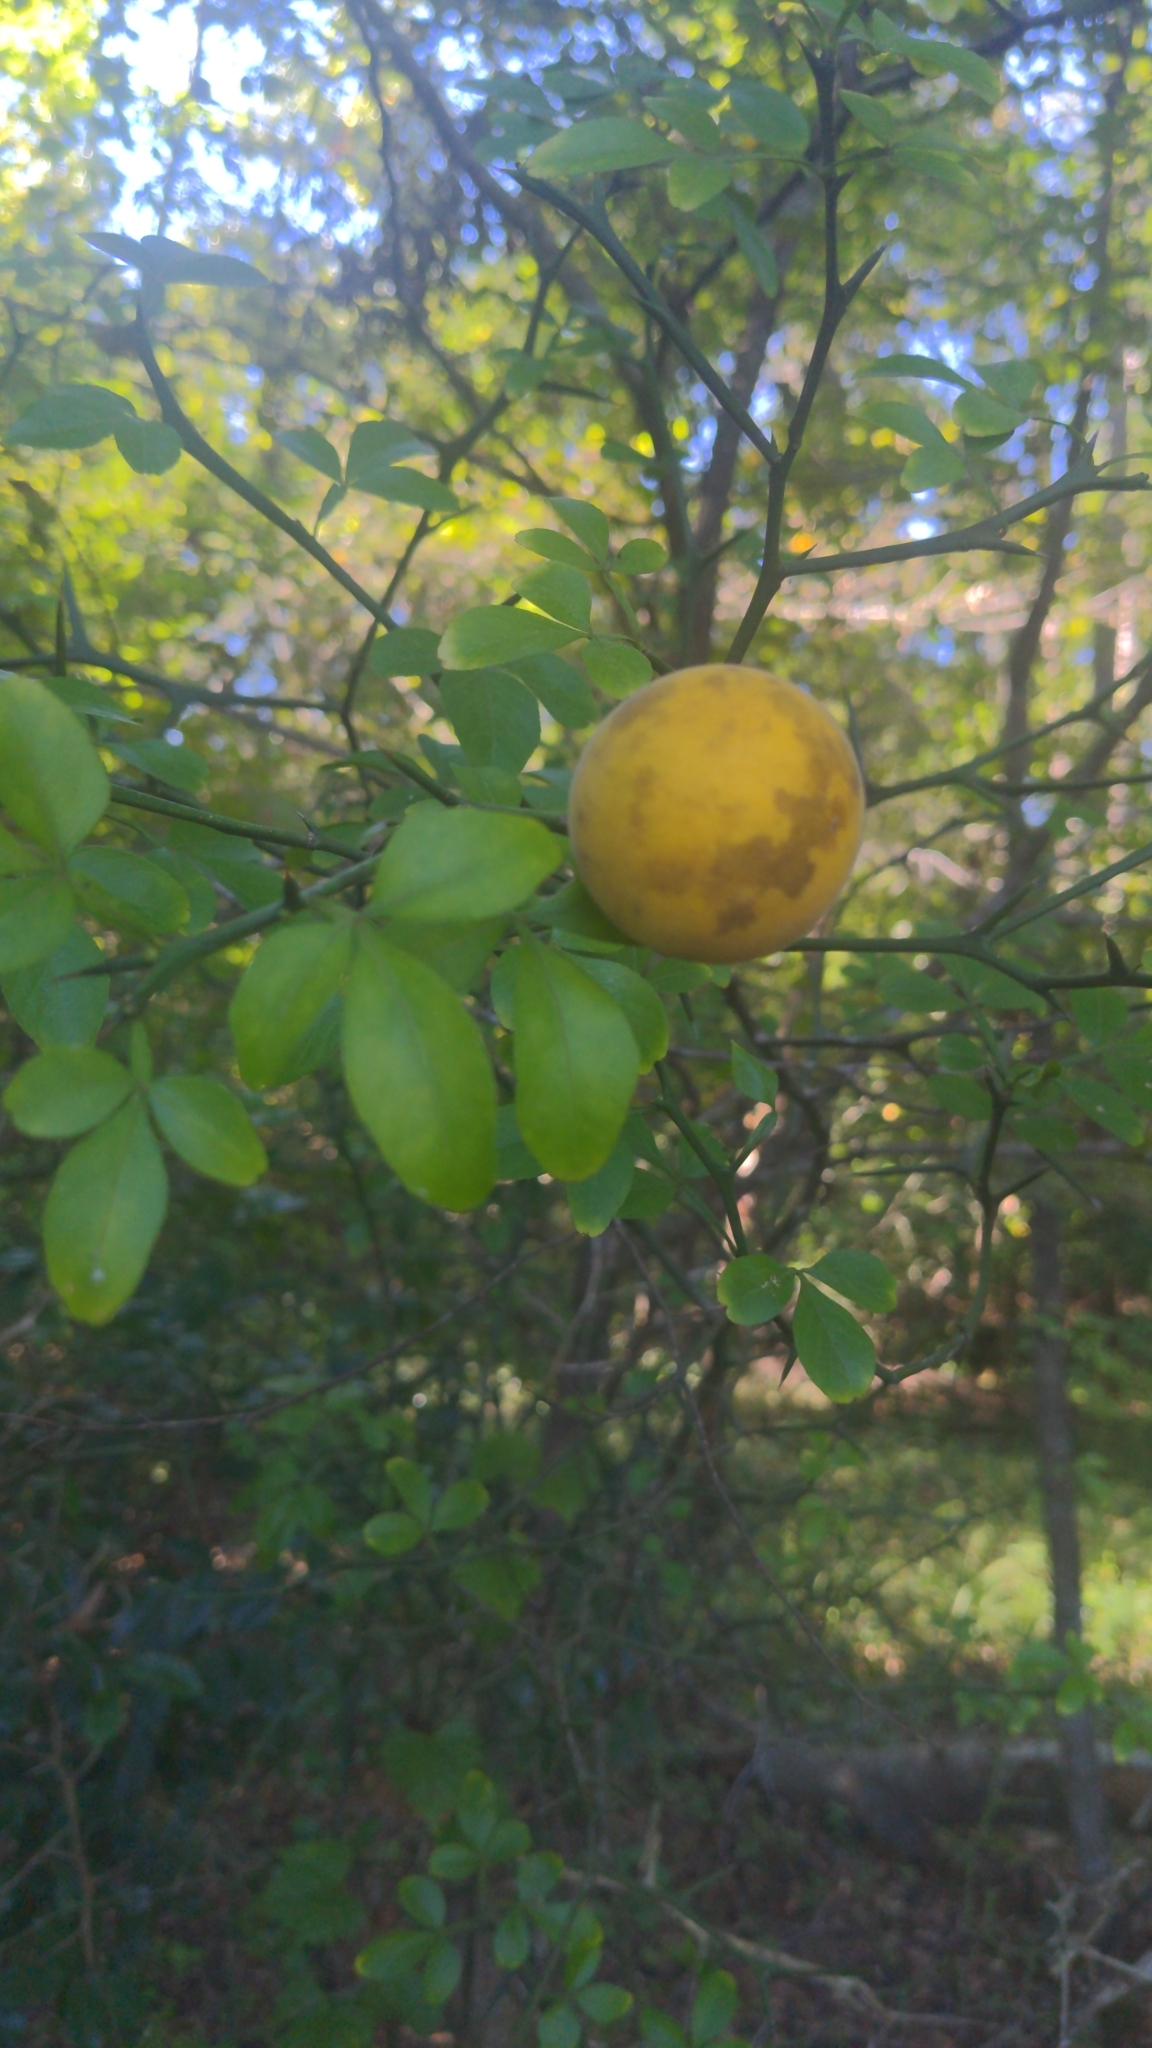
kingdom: Plantae
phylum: Tracheophyta
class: Magnoliopsida
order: Sapindales
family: Rutaceae
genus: Citrus
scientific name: Citrus trifoliata
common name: Japanese bitter-orange
